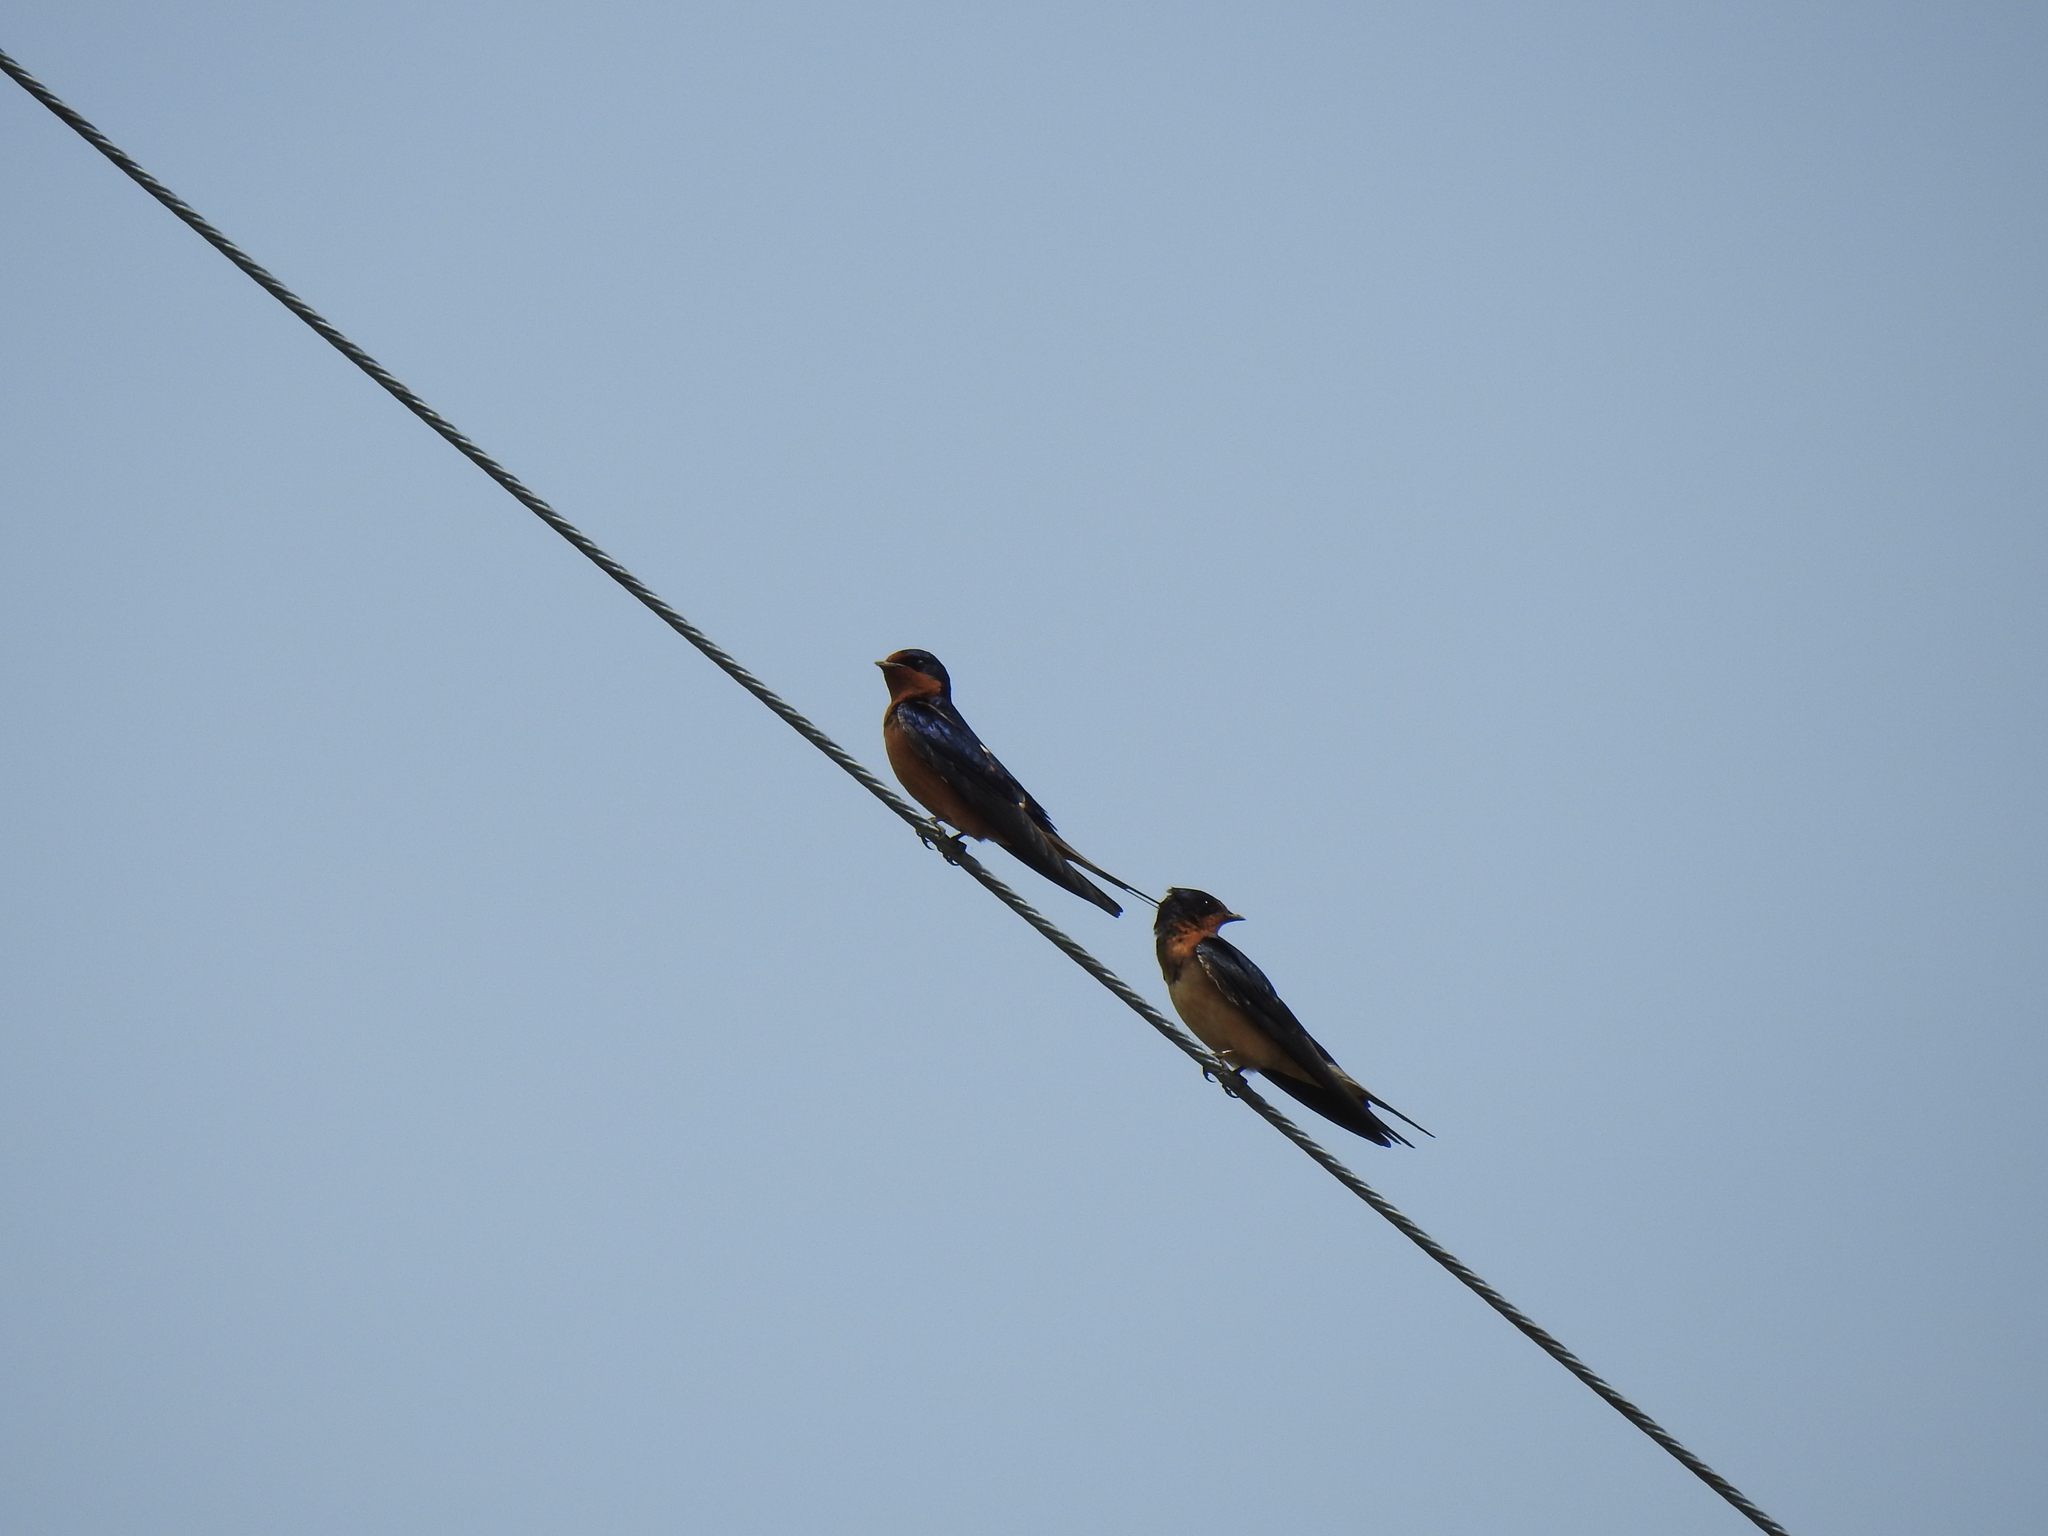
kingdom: Animalia
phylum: Chordata
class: Aves
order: Passeriformes
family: Hirundinidae
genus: Hirundo
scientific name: Hirundo rustica
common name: Barn swallow
